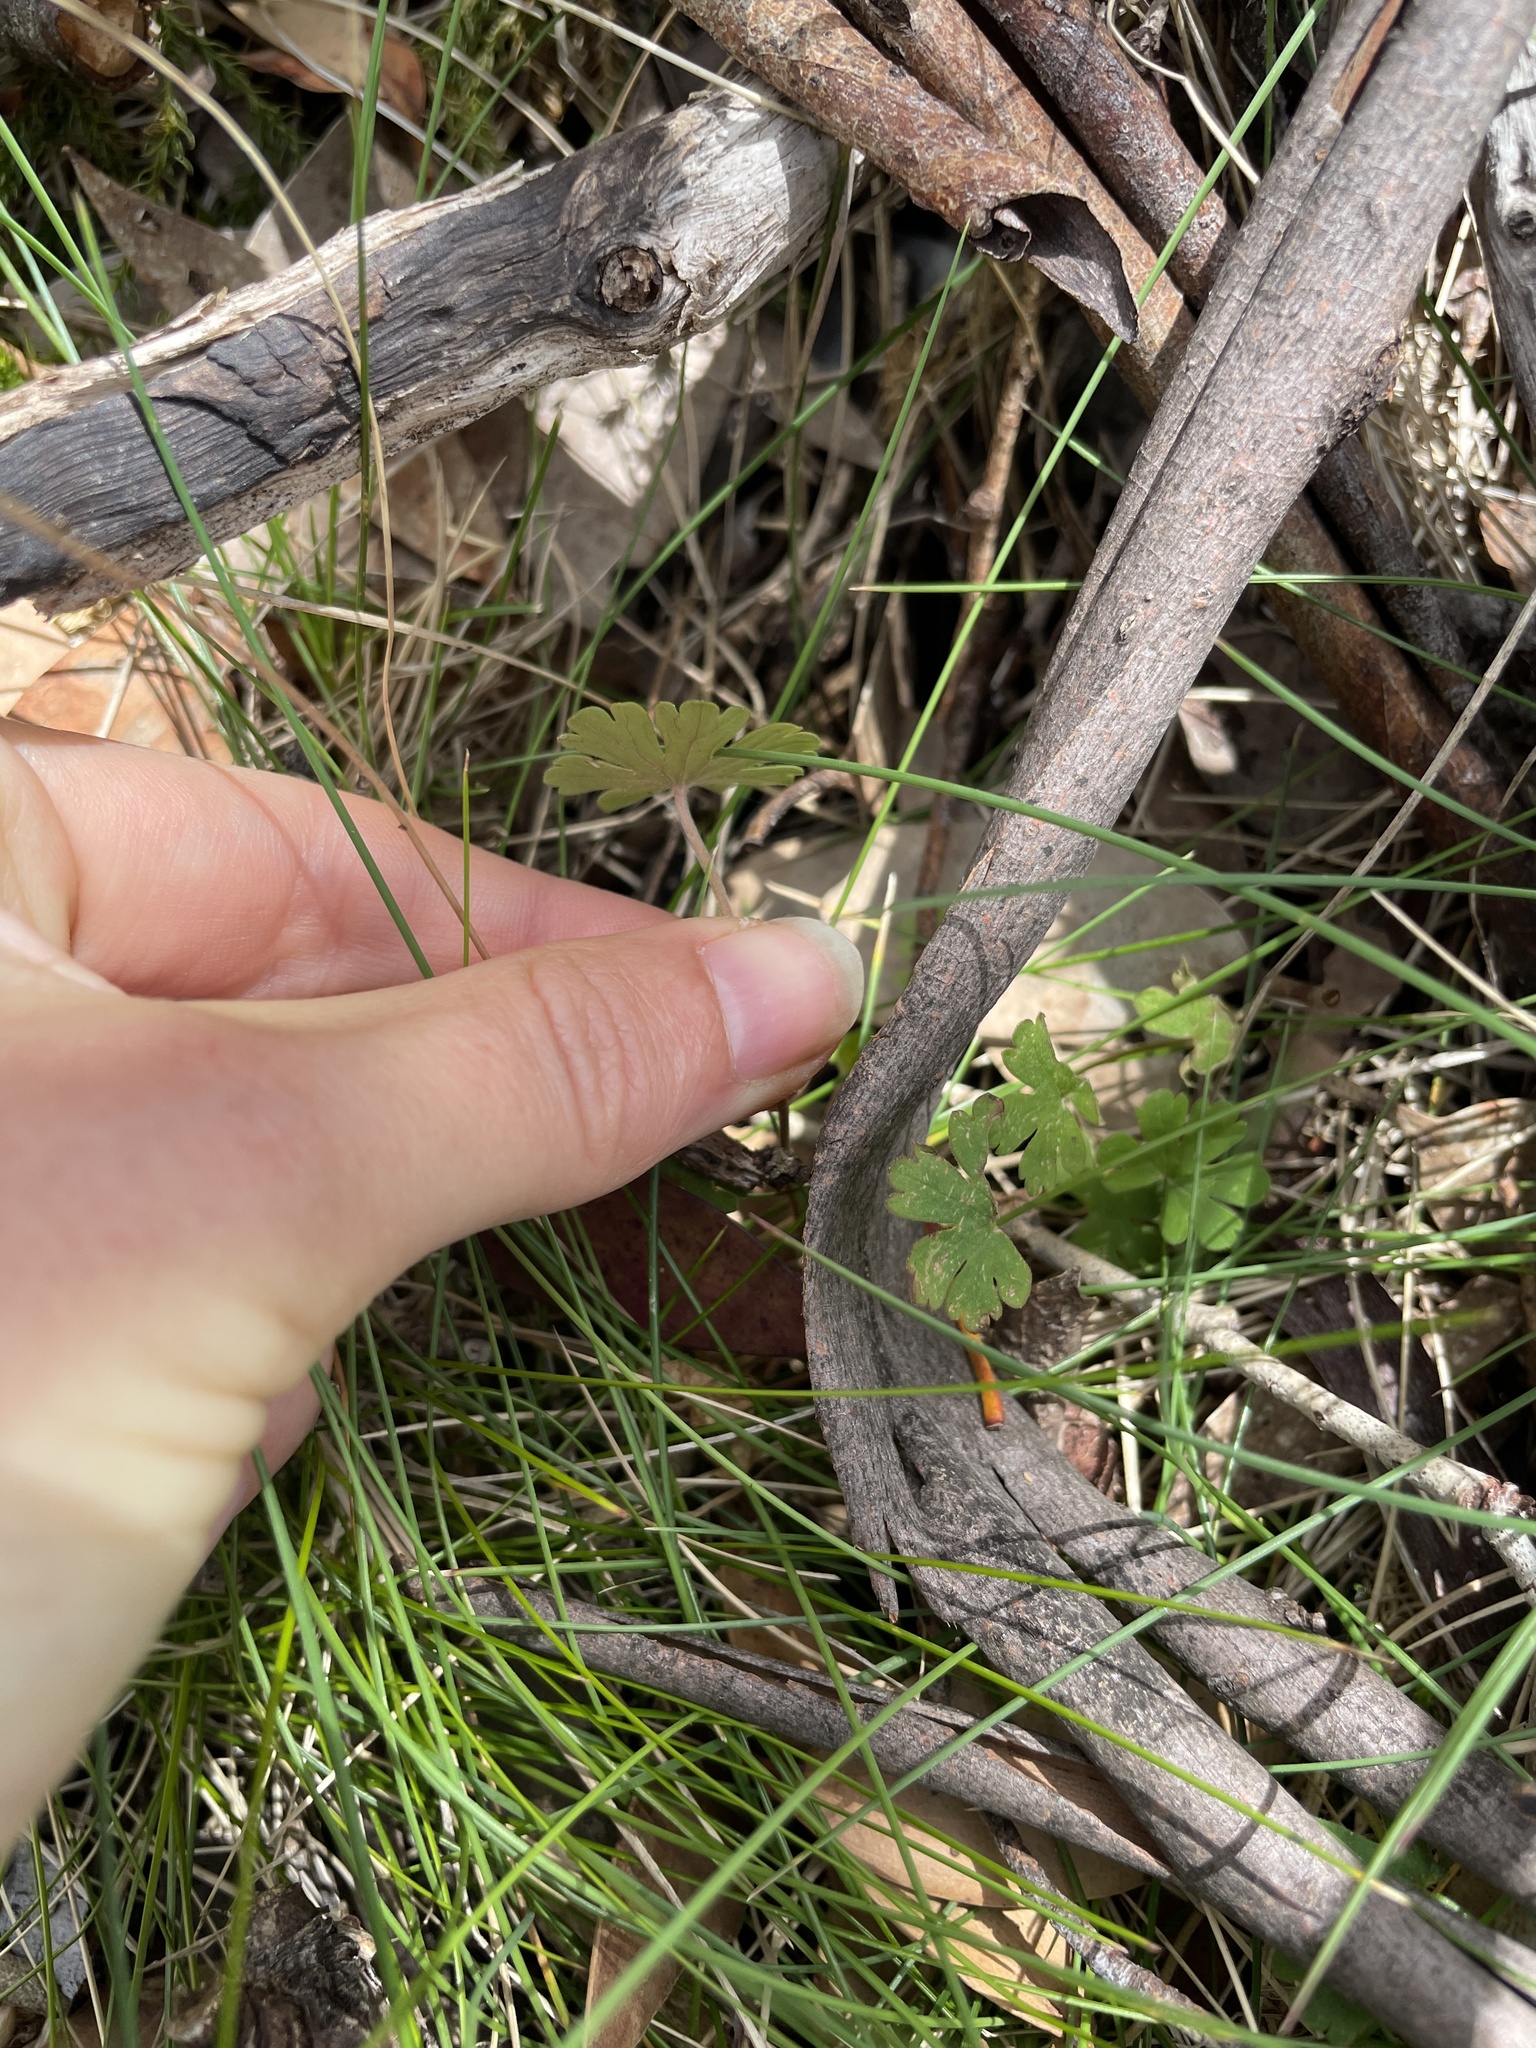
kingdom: Plantae
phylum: Tracheophyta
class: Magnoliopsida
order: Geraniales
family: Geraniaceae
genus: Geranium
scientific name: Geranium
